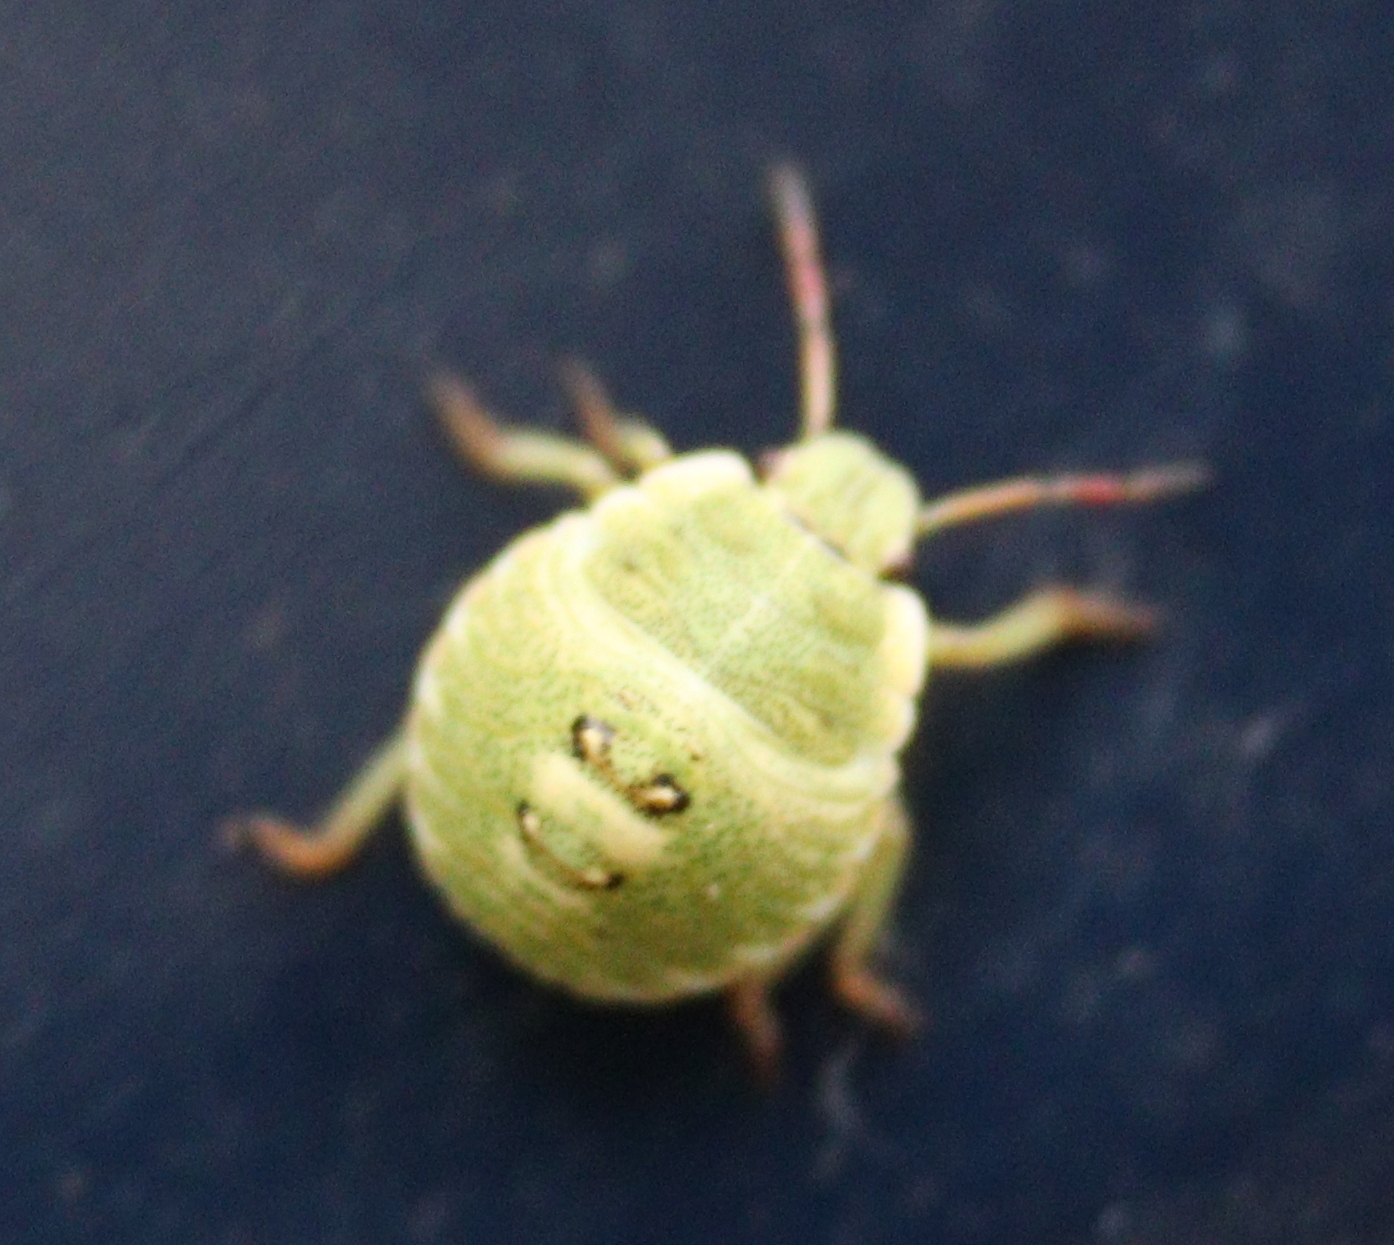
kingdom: Animalia
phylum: Arthropoda
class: Insecta
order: Hemiptera
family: Pentatomidae
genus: Palomena
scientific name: Palomena prasina
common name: Green shieldbug
